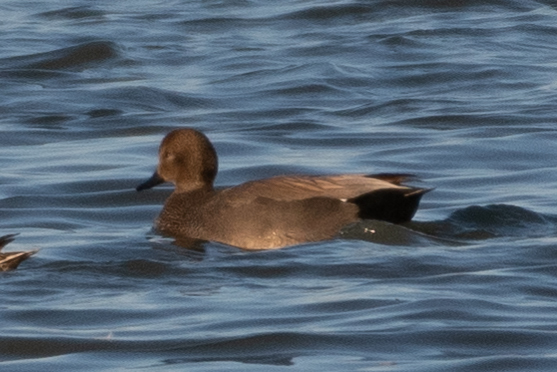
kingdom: Animalia
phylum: Chordata
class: Aves
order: Anseriformes
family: Anatidae
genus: Mareca
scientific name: Mareca strepera
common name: Gadwall
